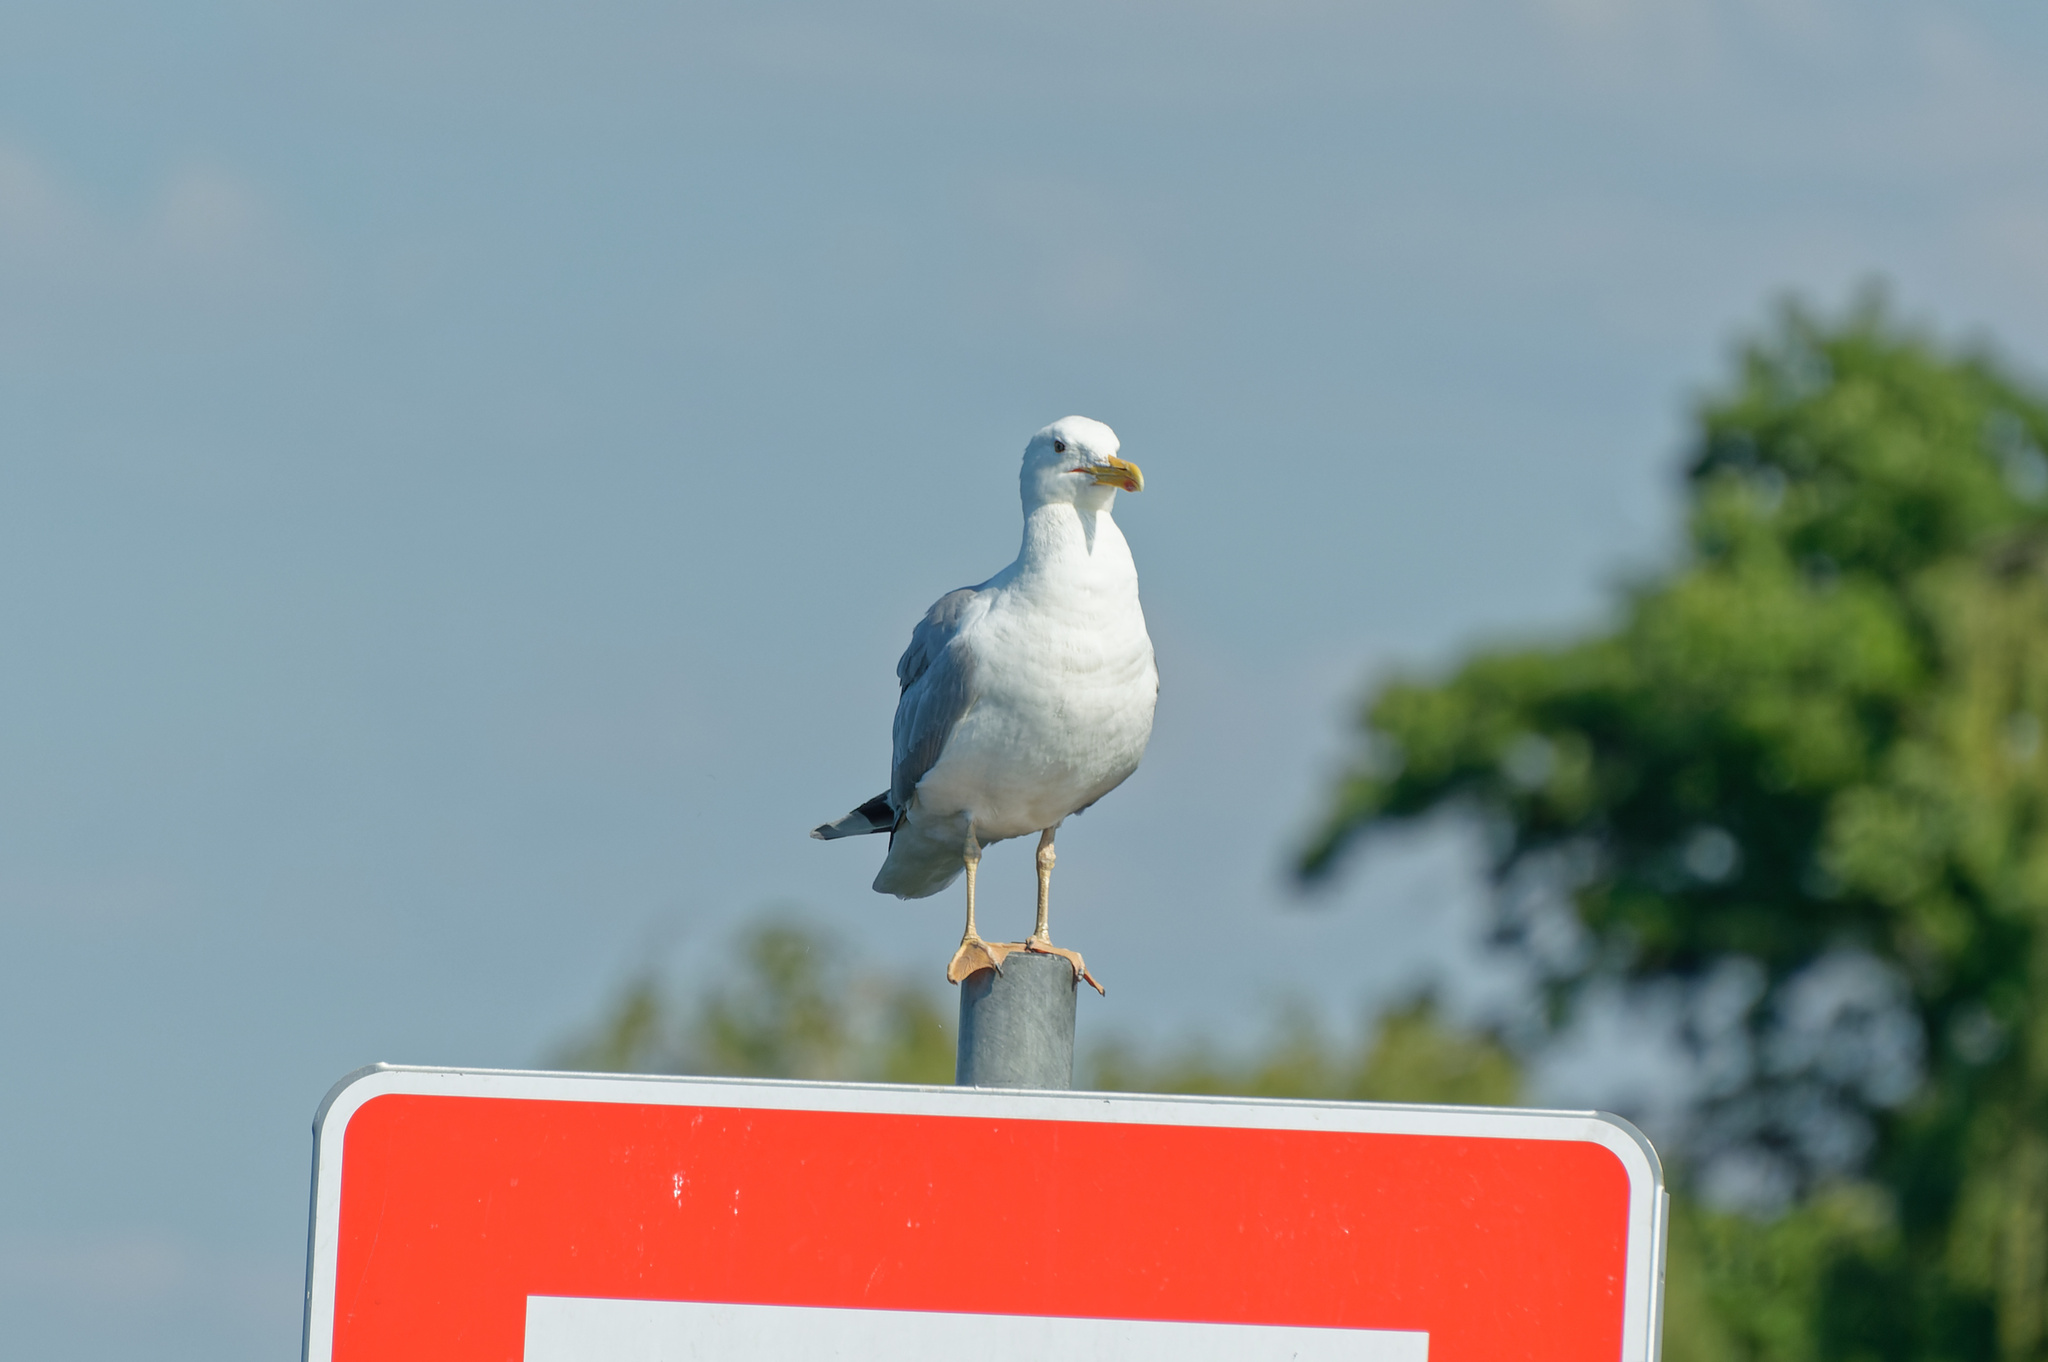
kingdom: Animalia
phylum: Chordata
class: Aves
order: Charadriiformes
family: Laridae
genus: Larus
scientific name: Larus cachinnans
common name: Caspian gull
